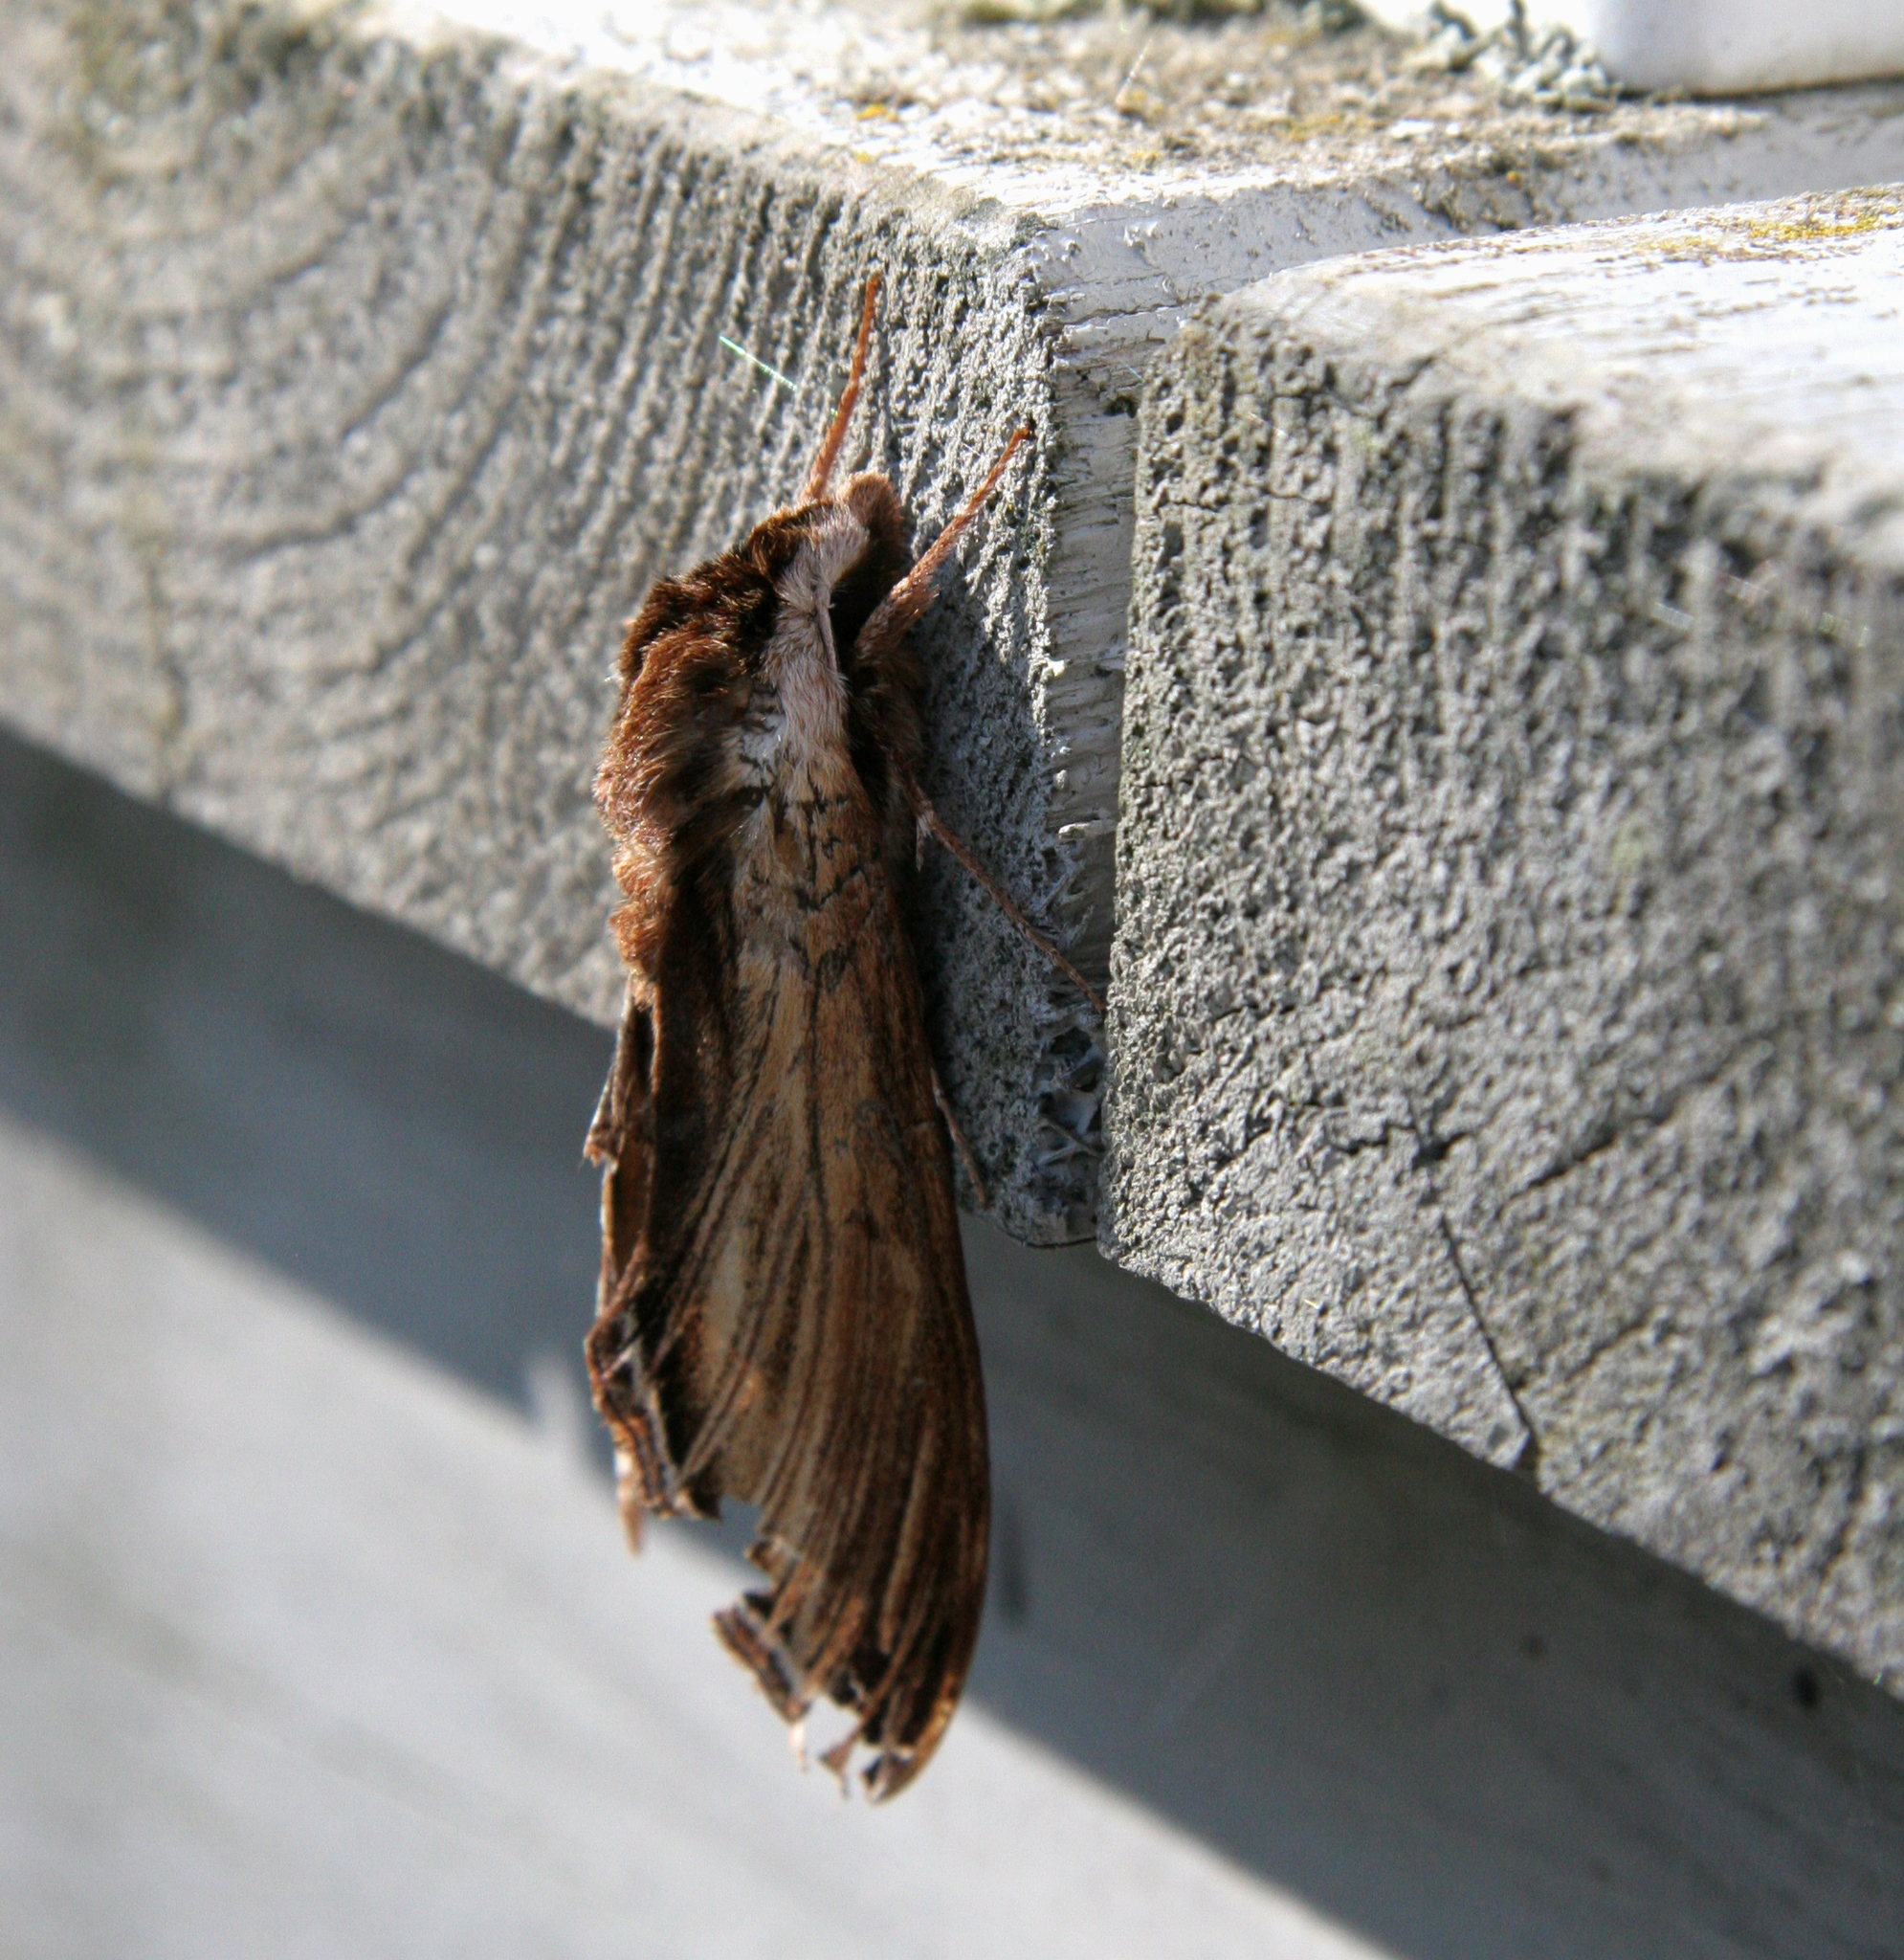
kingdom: Animalia
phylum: Arthropoda
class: Insecta
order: Lepidoptera
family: Sphingidae
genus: Sphinx
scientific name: Sphinx kalmiae
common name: Laurel sphinx
